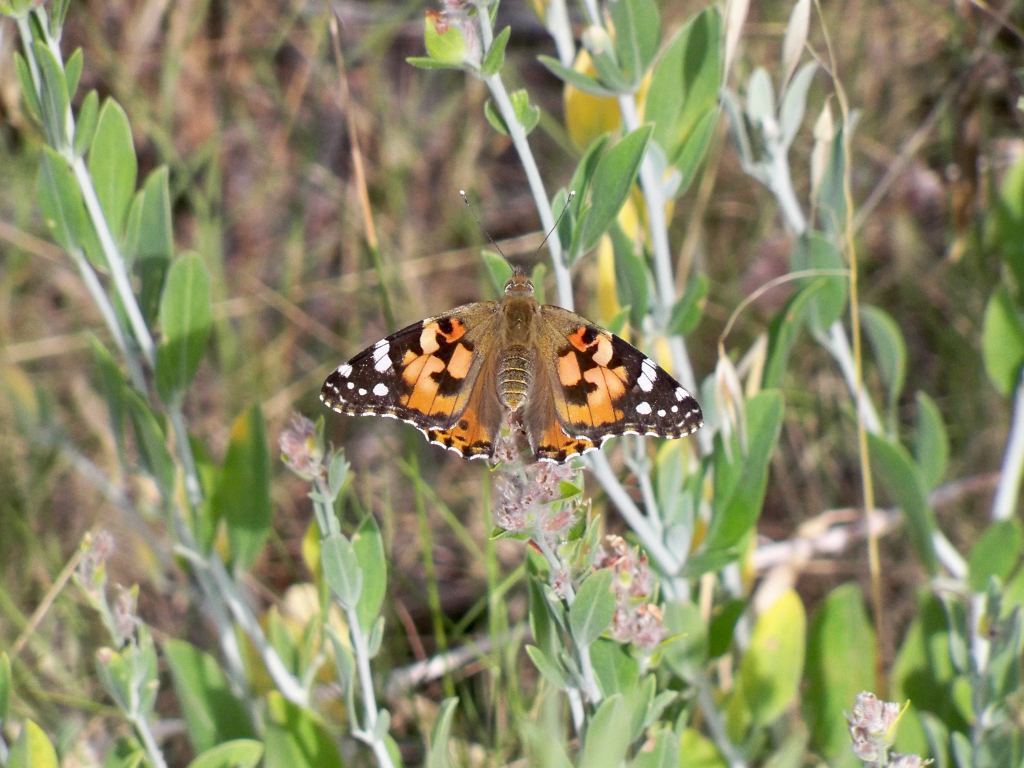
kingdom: Animalia
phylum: Arthropoda
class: Insecta
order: Lepidoptera
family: Nymphalidae
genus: Vanessa
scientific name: Vanessa cardui
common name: Painted lady
